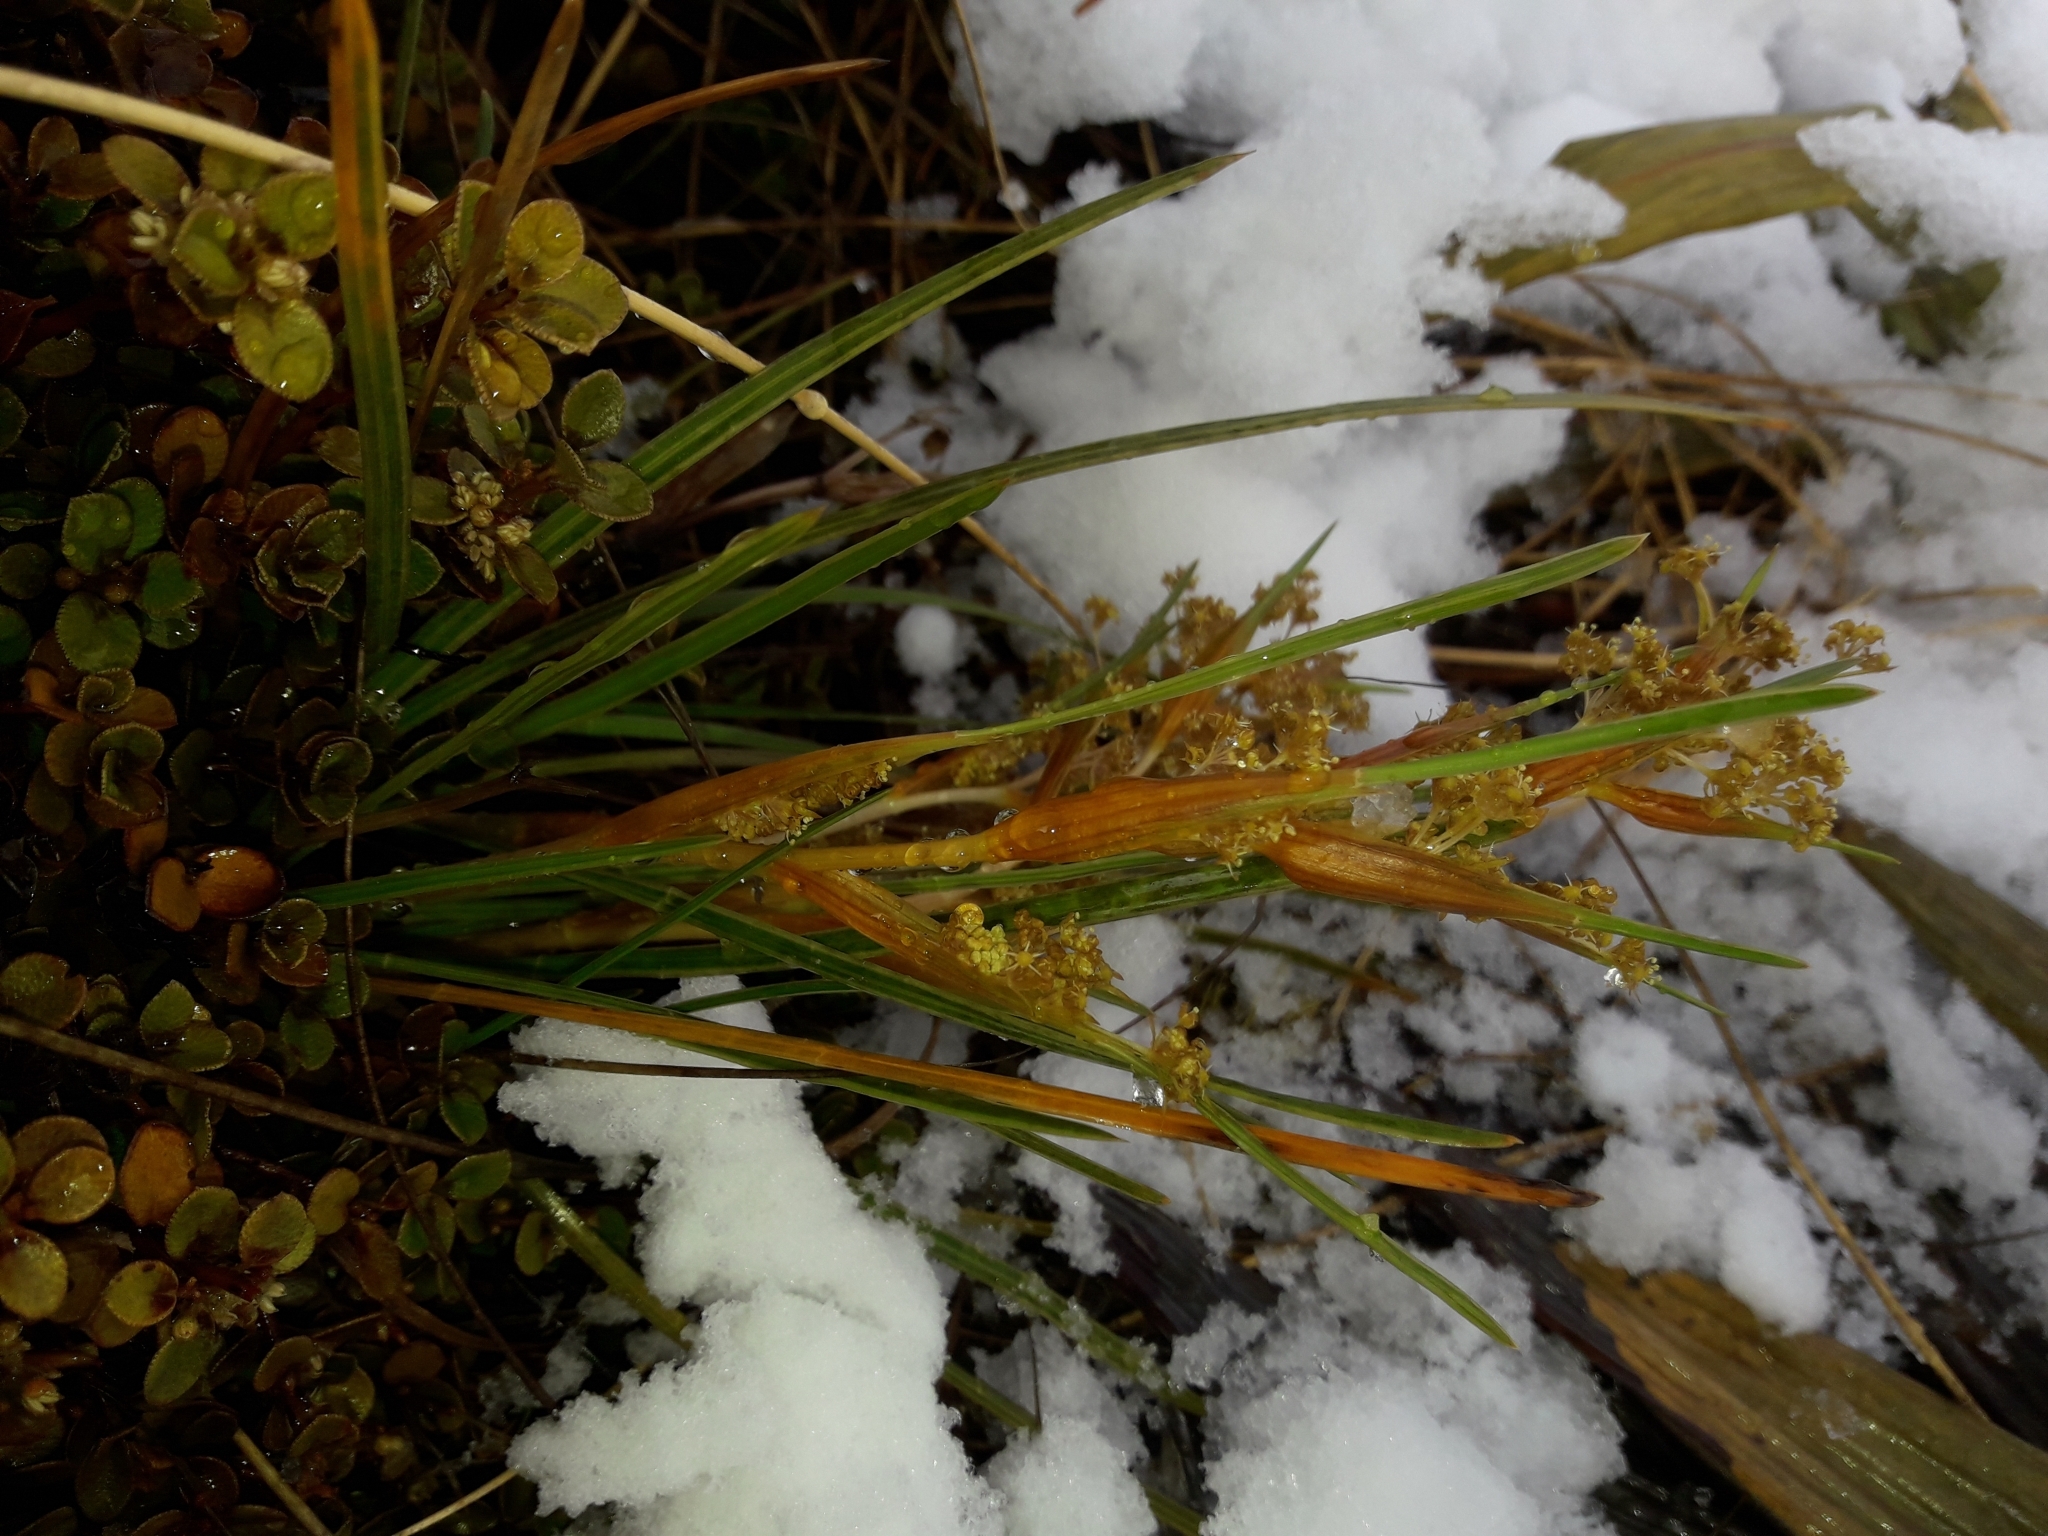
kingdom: Plantae
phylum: Tracheophyta
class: Magnoliopsida
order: Apiales
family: Apiaceae
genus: Aciphylla
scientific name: Aciphylla lyallii
